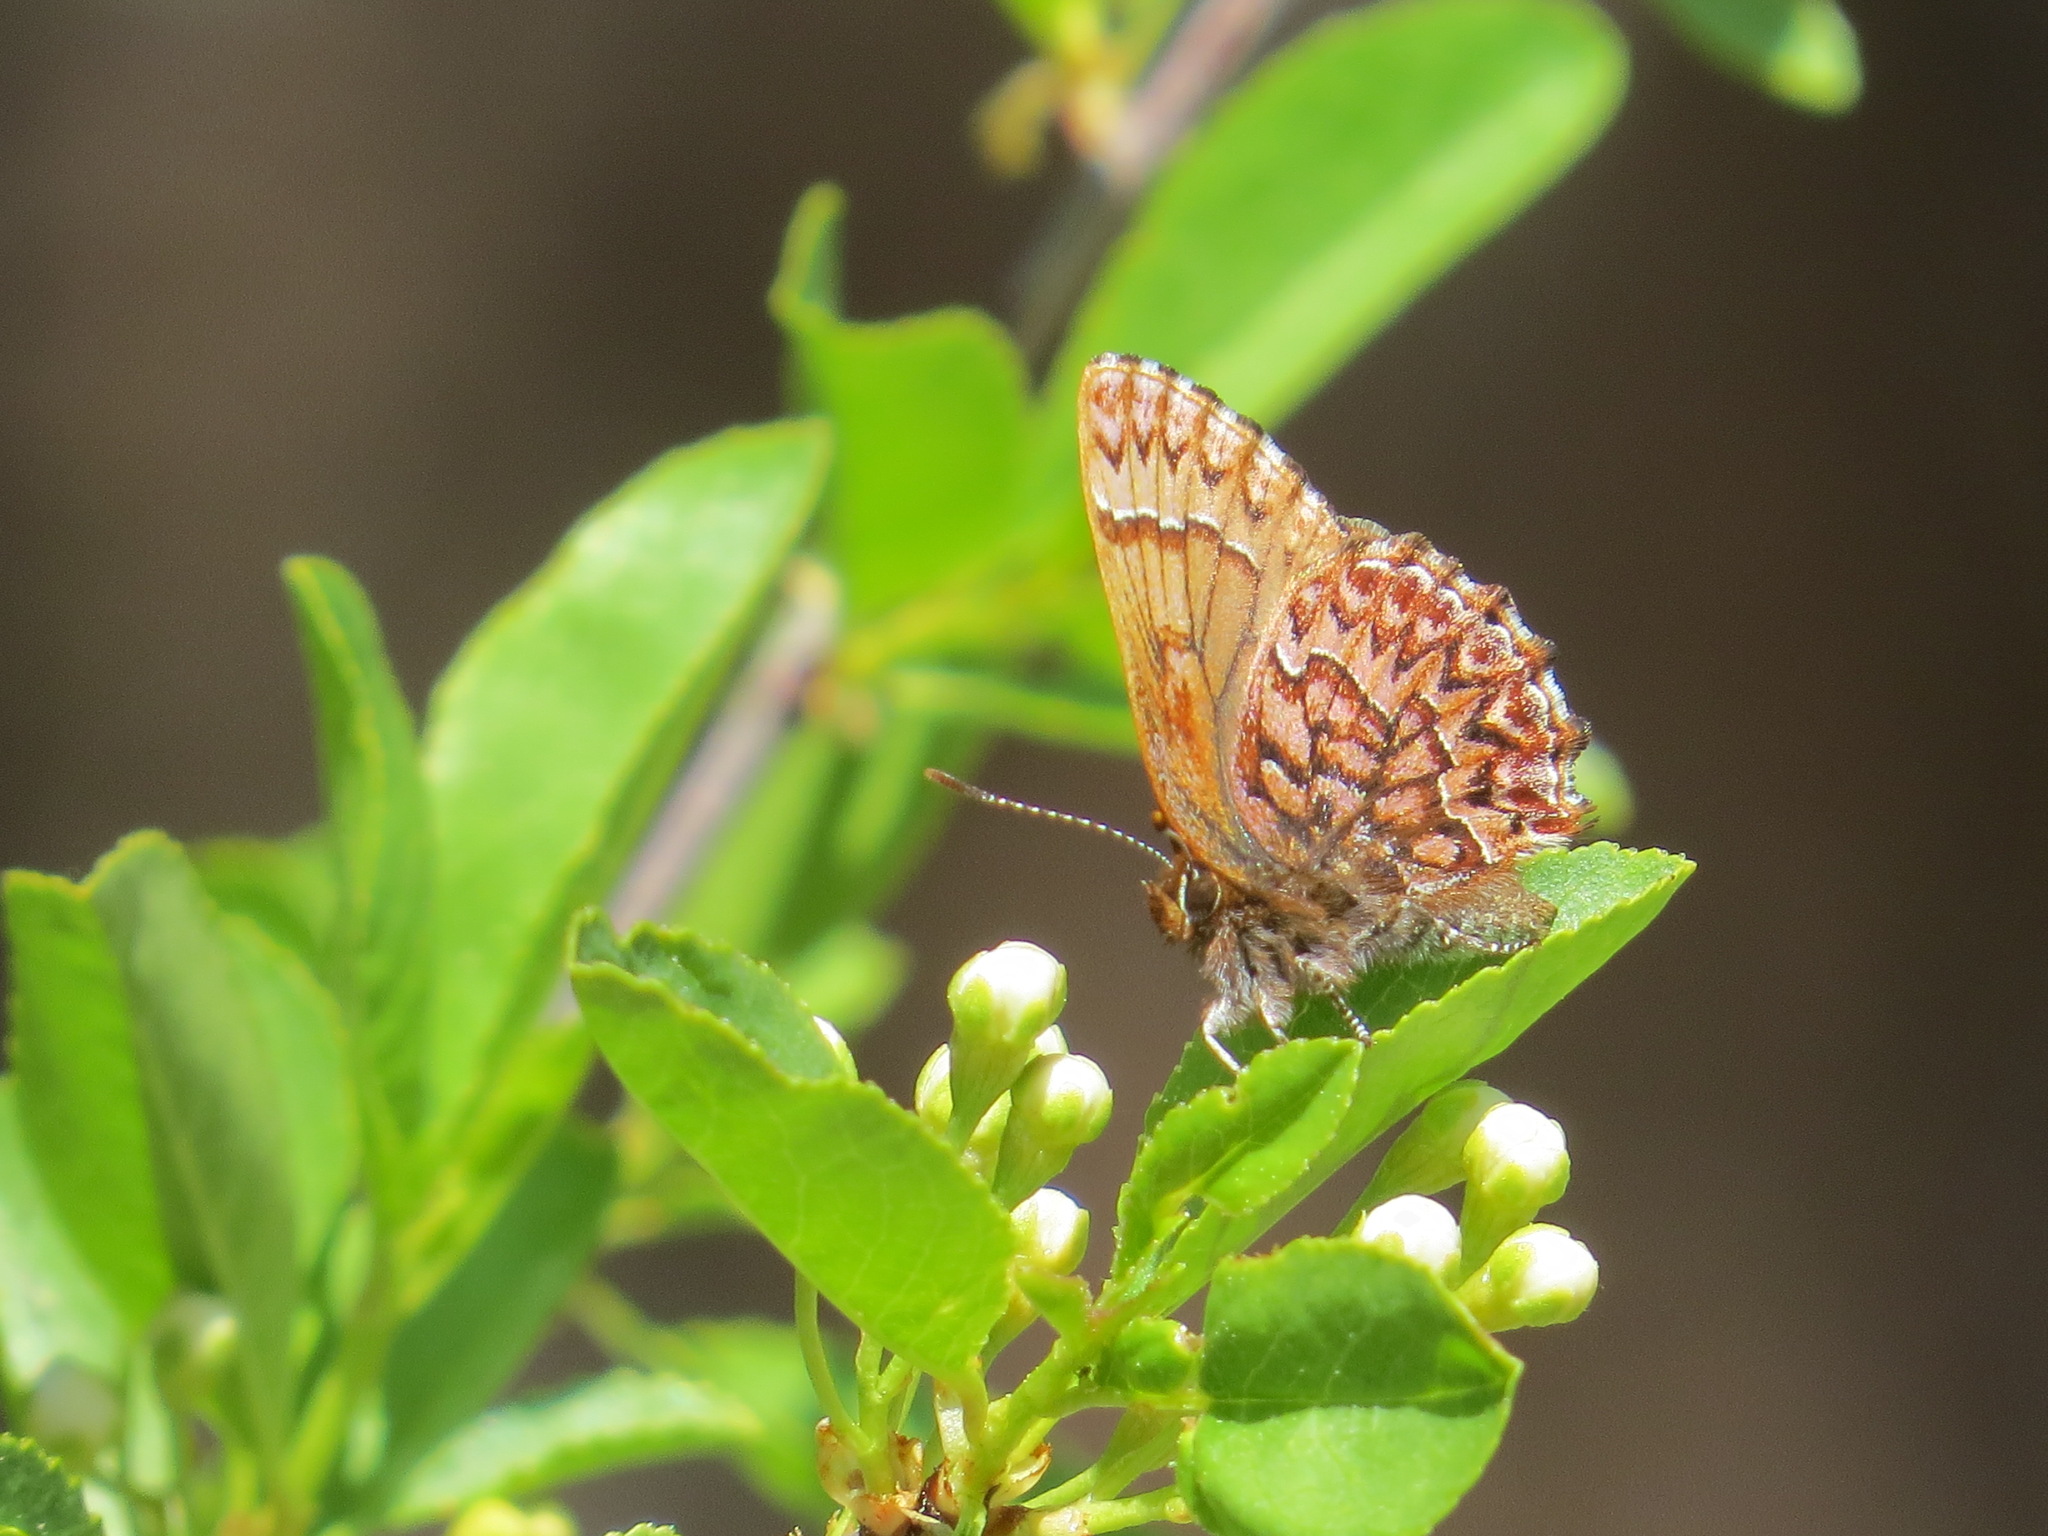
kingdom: Animalia
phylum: Arthropoda
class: Insecta
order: Lepidoptera
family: Lycaenidae
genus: Incisalia
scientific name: Incisalia eryphon
